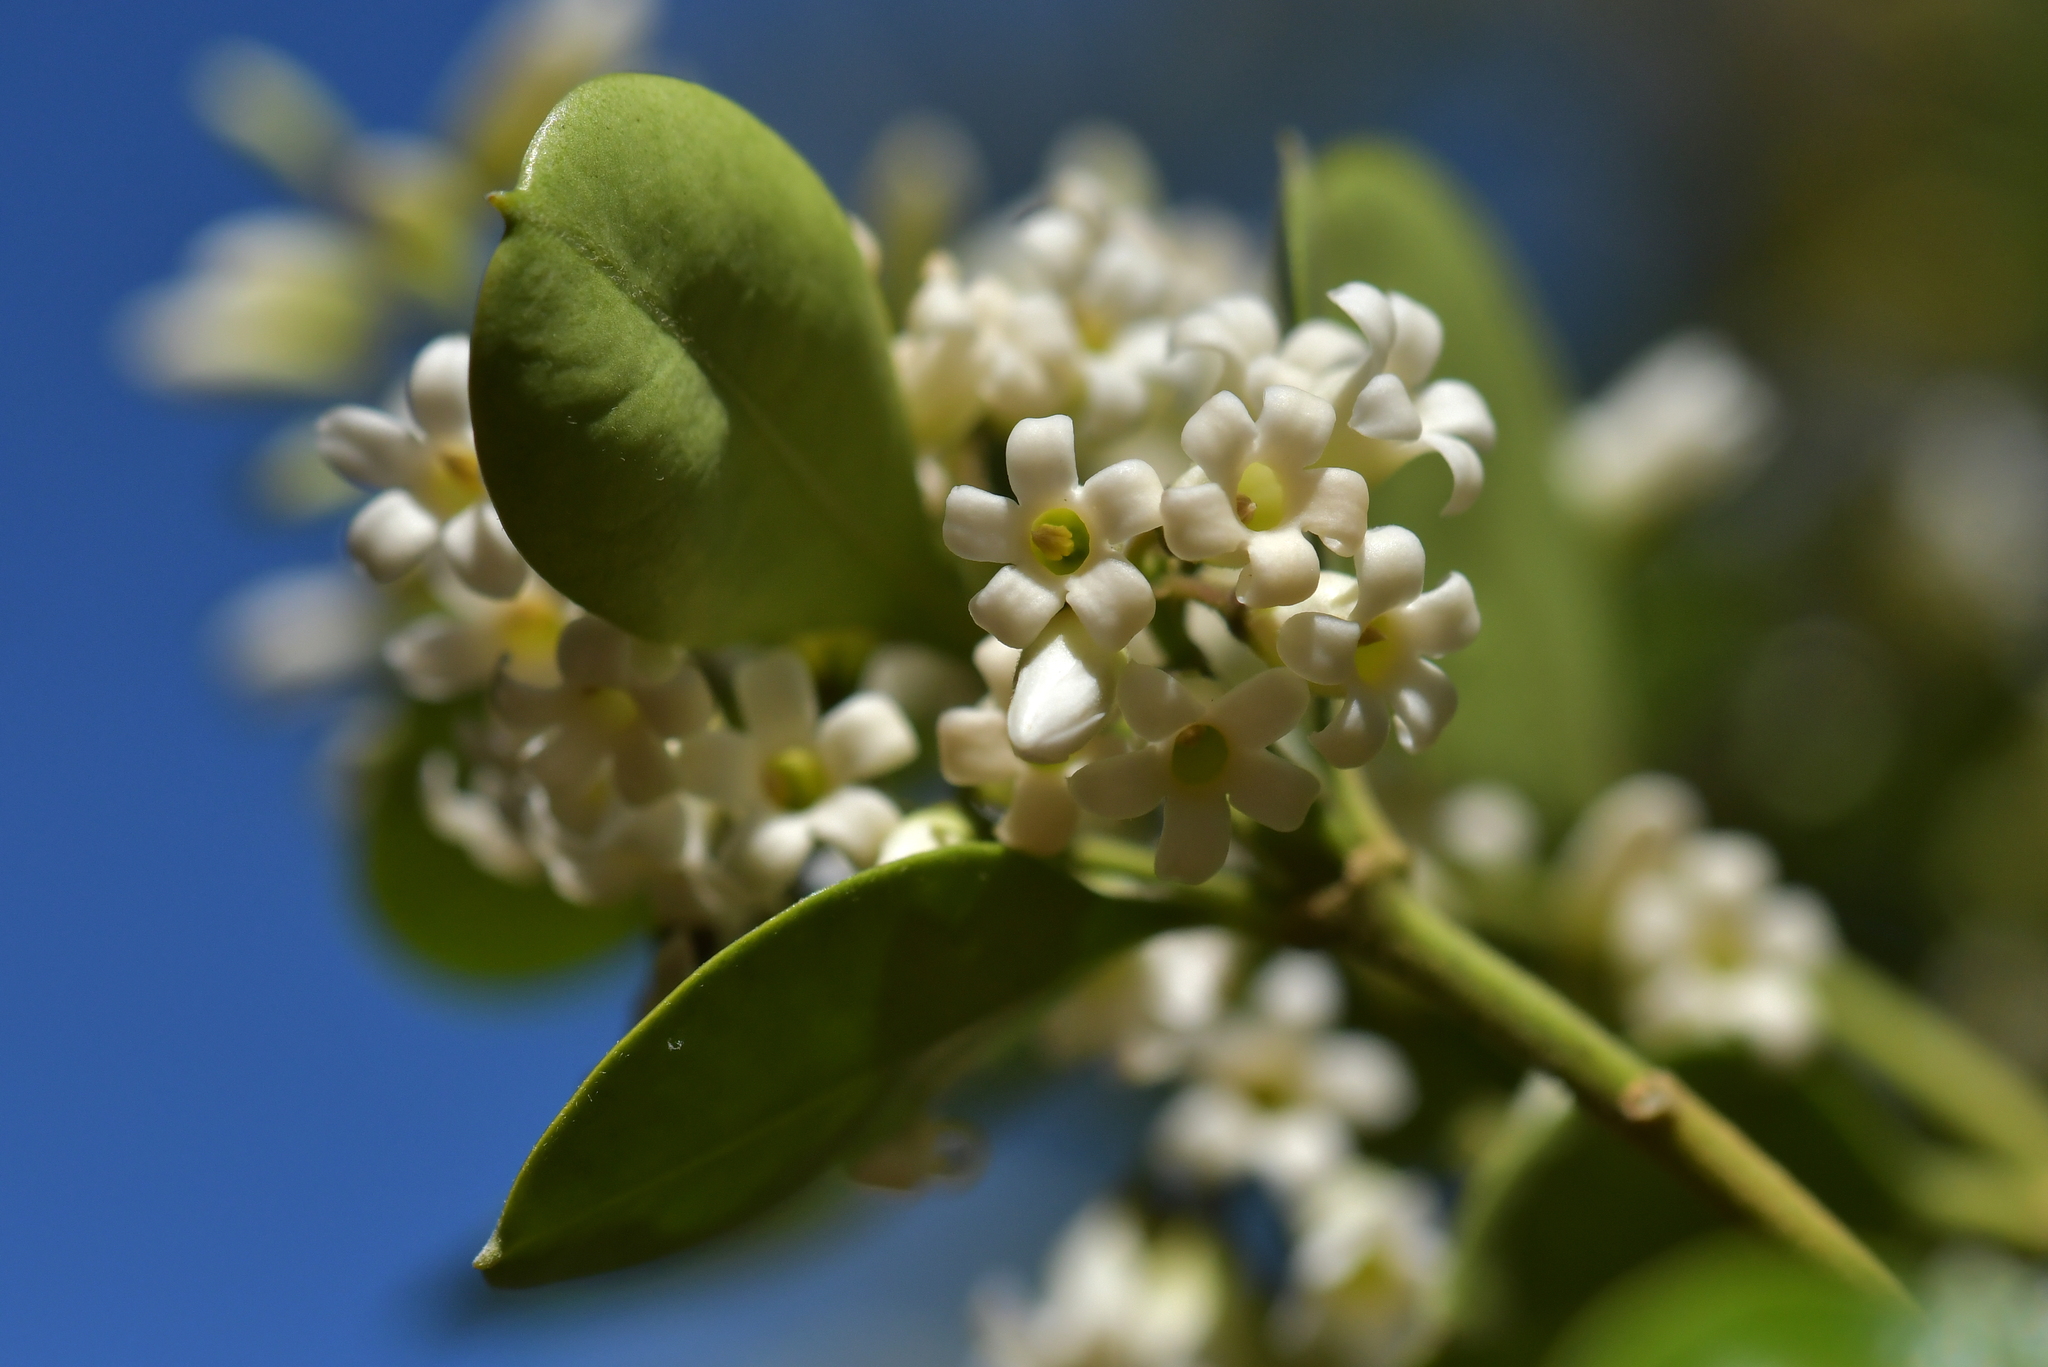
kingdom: Plantae
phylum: Tracheophyta
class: Magnoliopsida
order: Gentianales
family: Apocynaceae
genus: Parsonsia
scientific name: Parsonsia heterophylla
